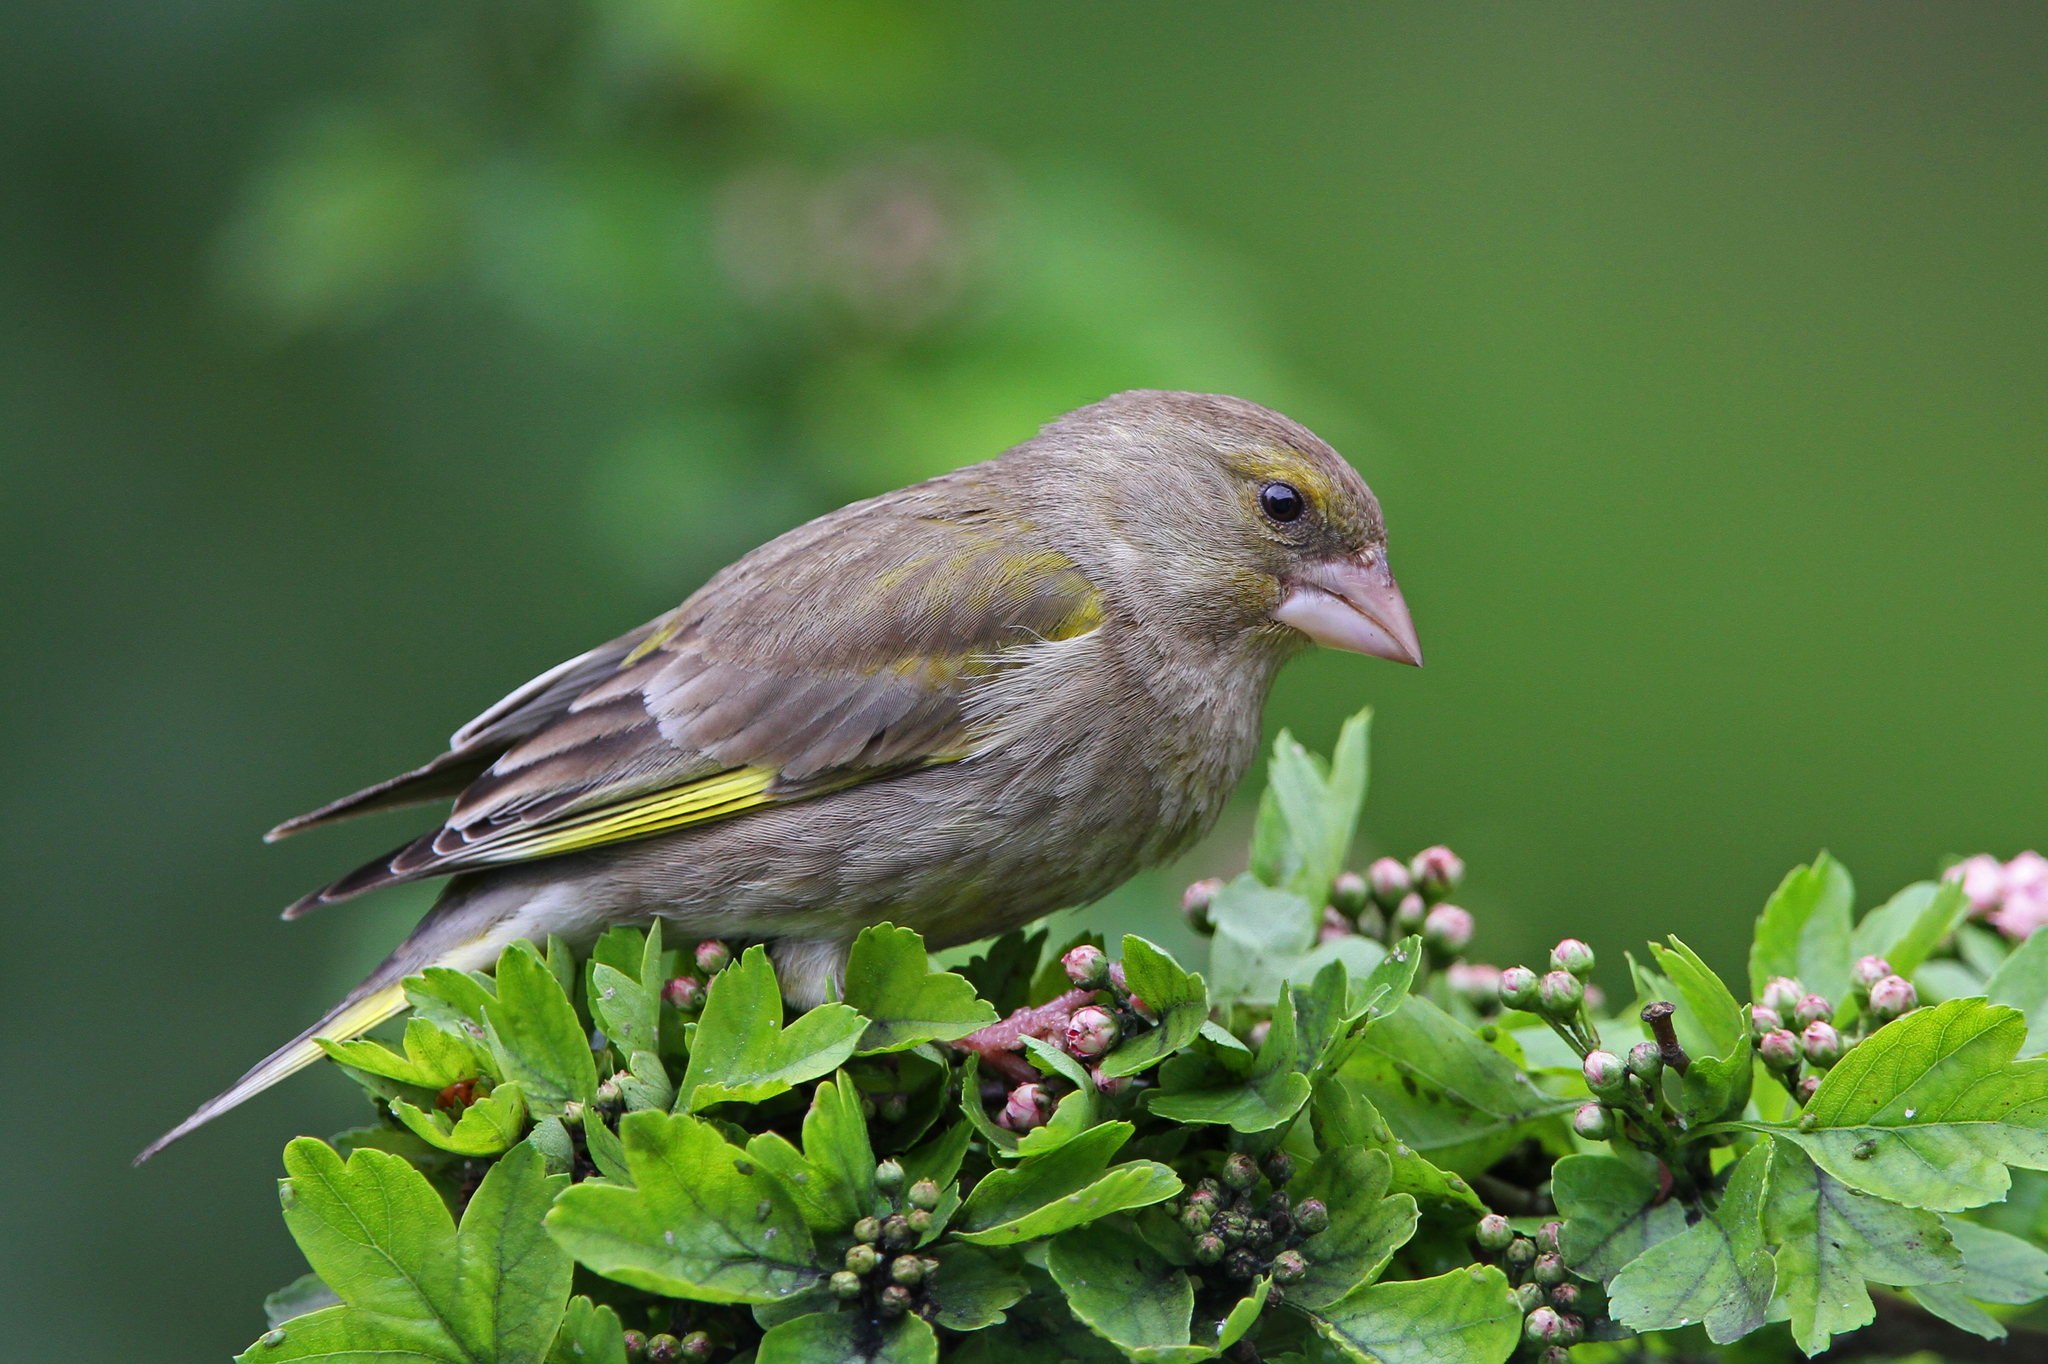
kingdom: Plantae
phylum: Tracheophyta
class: Liliopsida
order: Poales
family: Poaceae
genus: Chloris
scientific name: Chloris chloris
